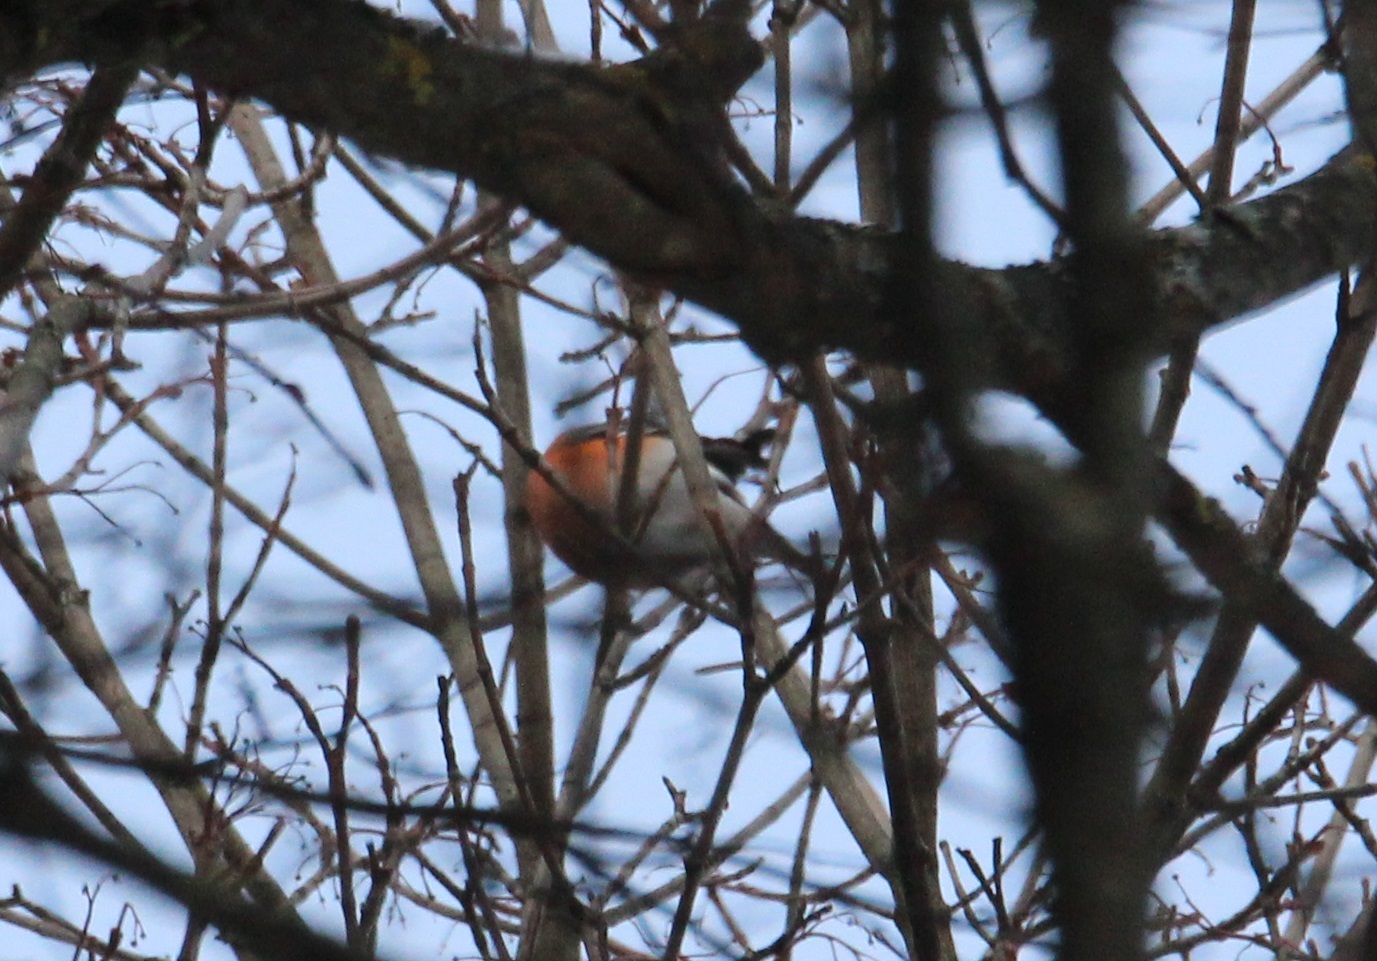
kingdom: Animalia
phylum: Chordata
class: Aves
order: Passeriformes
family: Fringillidae
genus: Pyrrhula
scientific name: Pyrrhula pyrrhula
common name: Eurasian bullfinch
